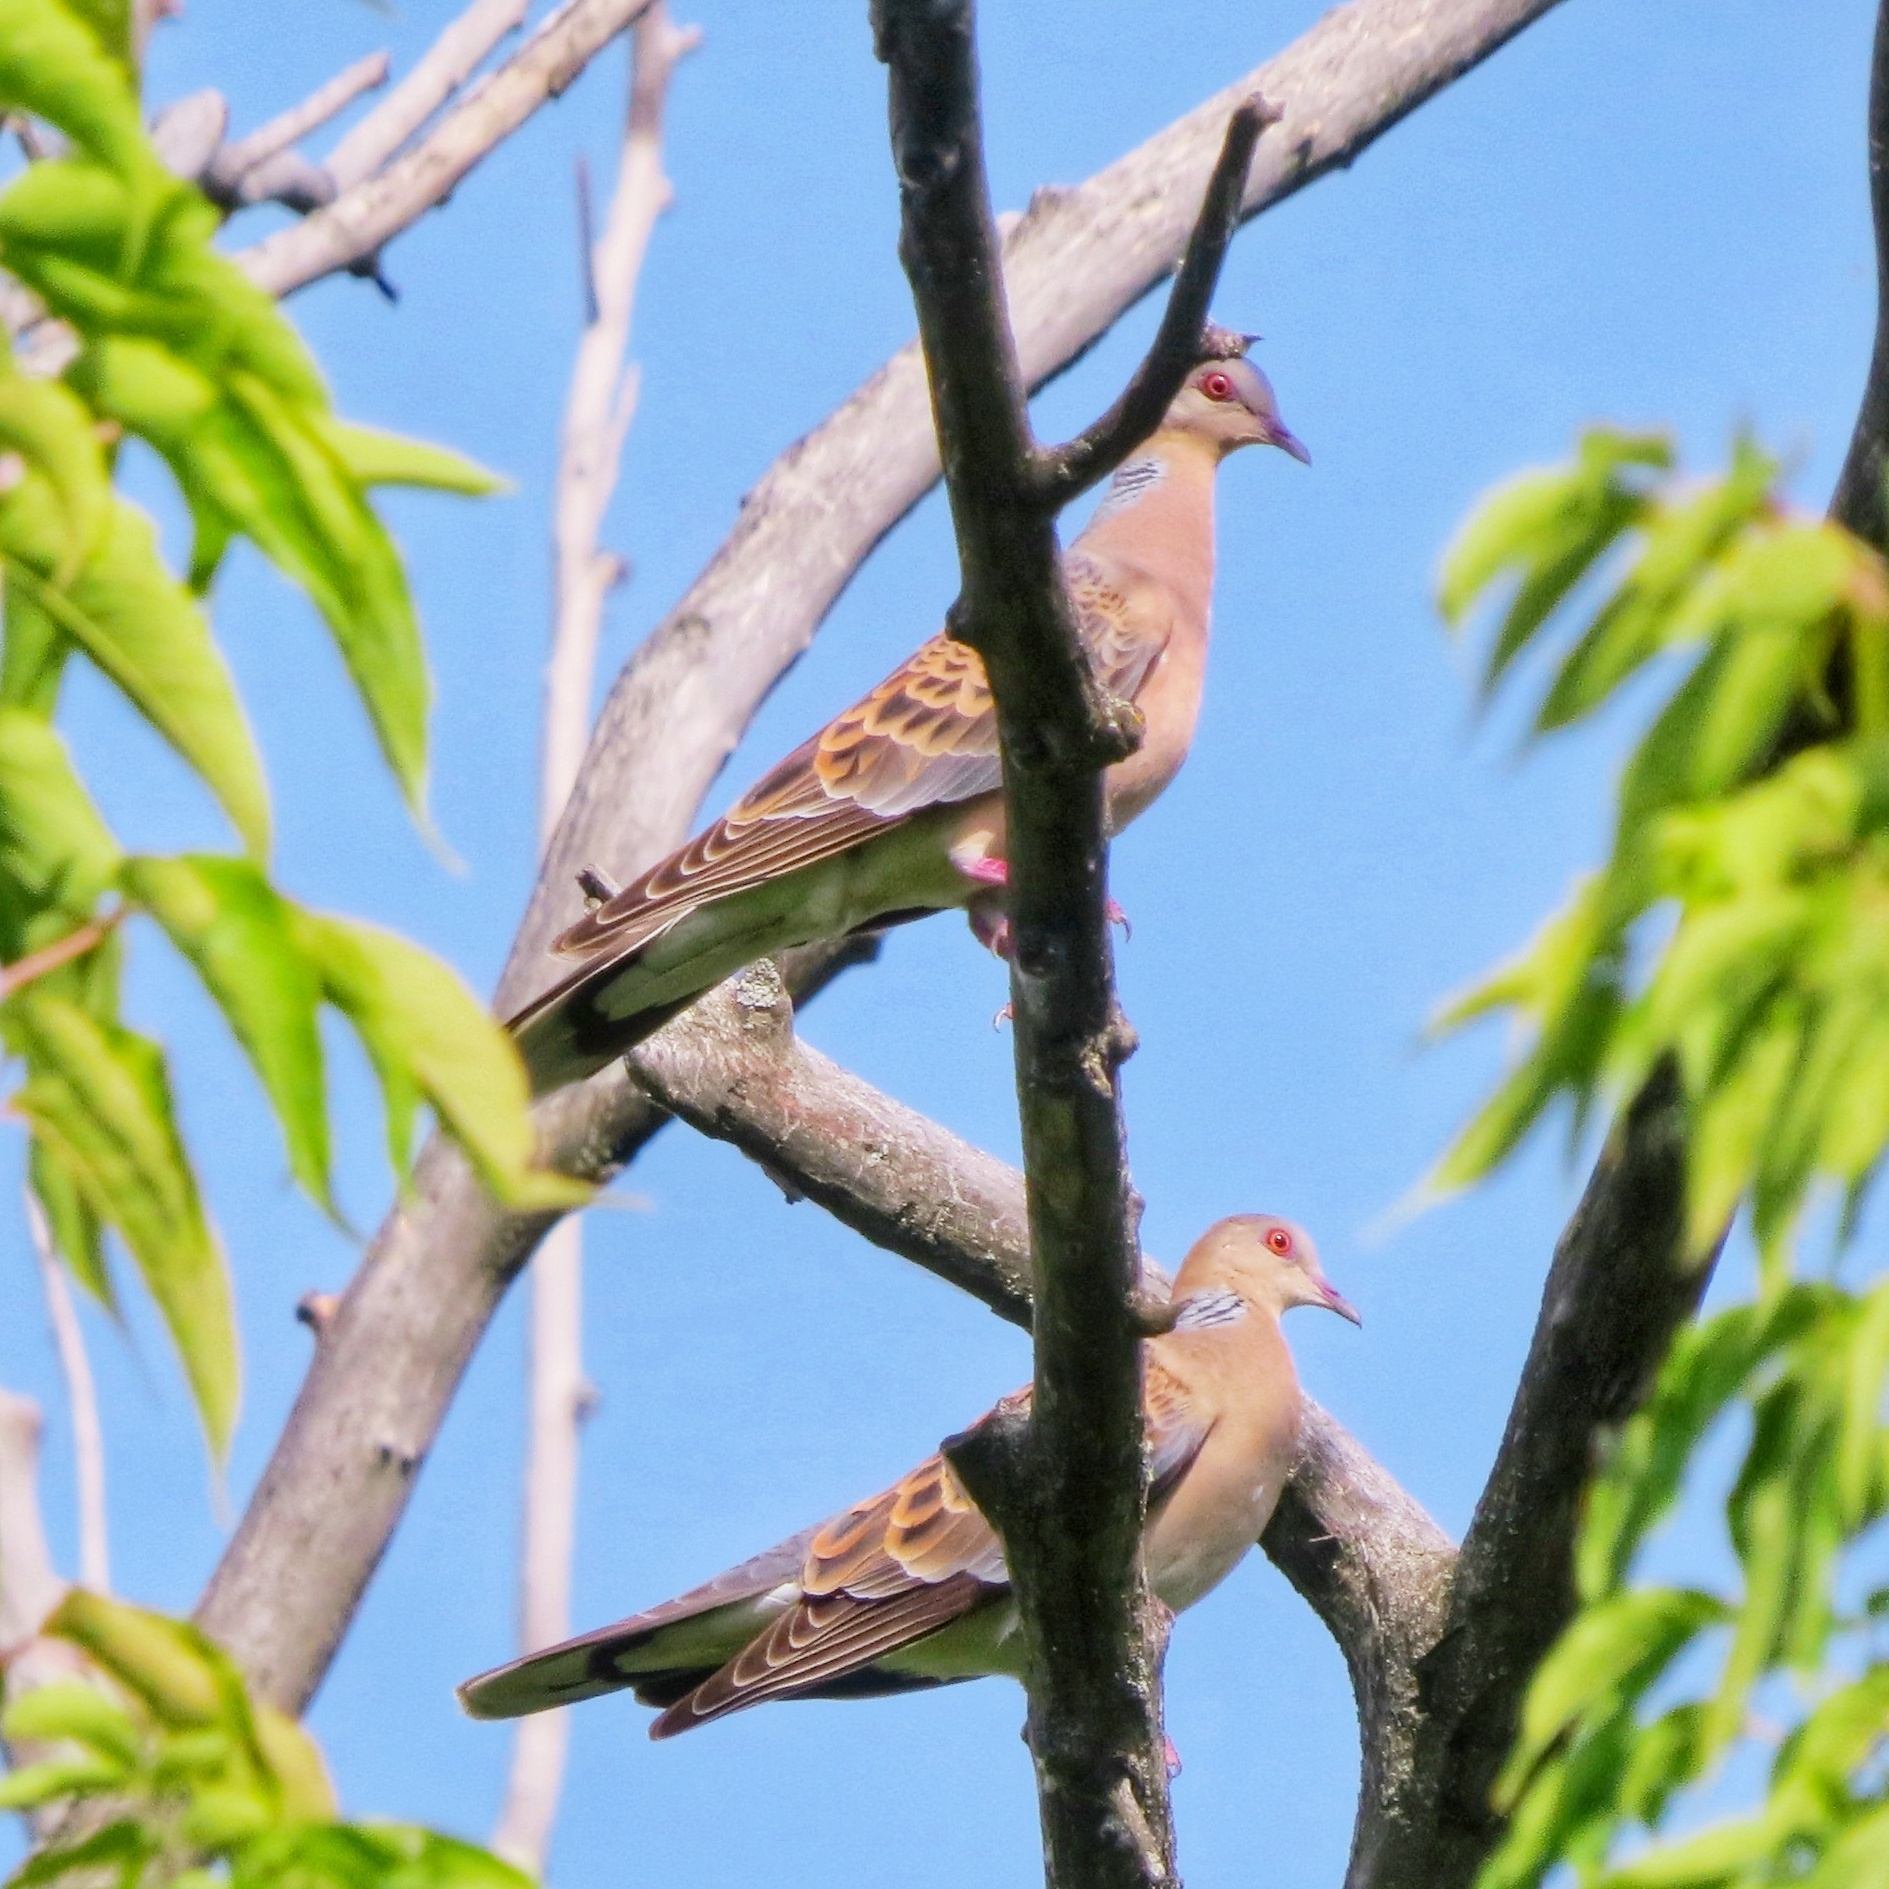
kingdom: Animalia
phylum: Chordata
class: Aves
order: Columbiformes
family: Columbidae
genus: Streptopelia
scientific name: Streptopelia orientalis
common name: Oriental turtle dove
